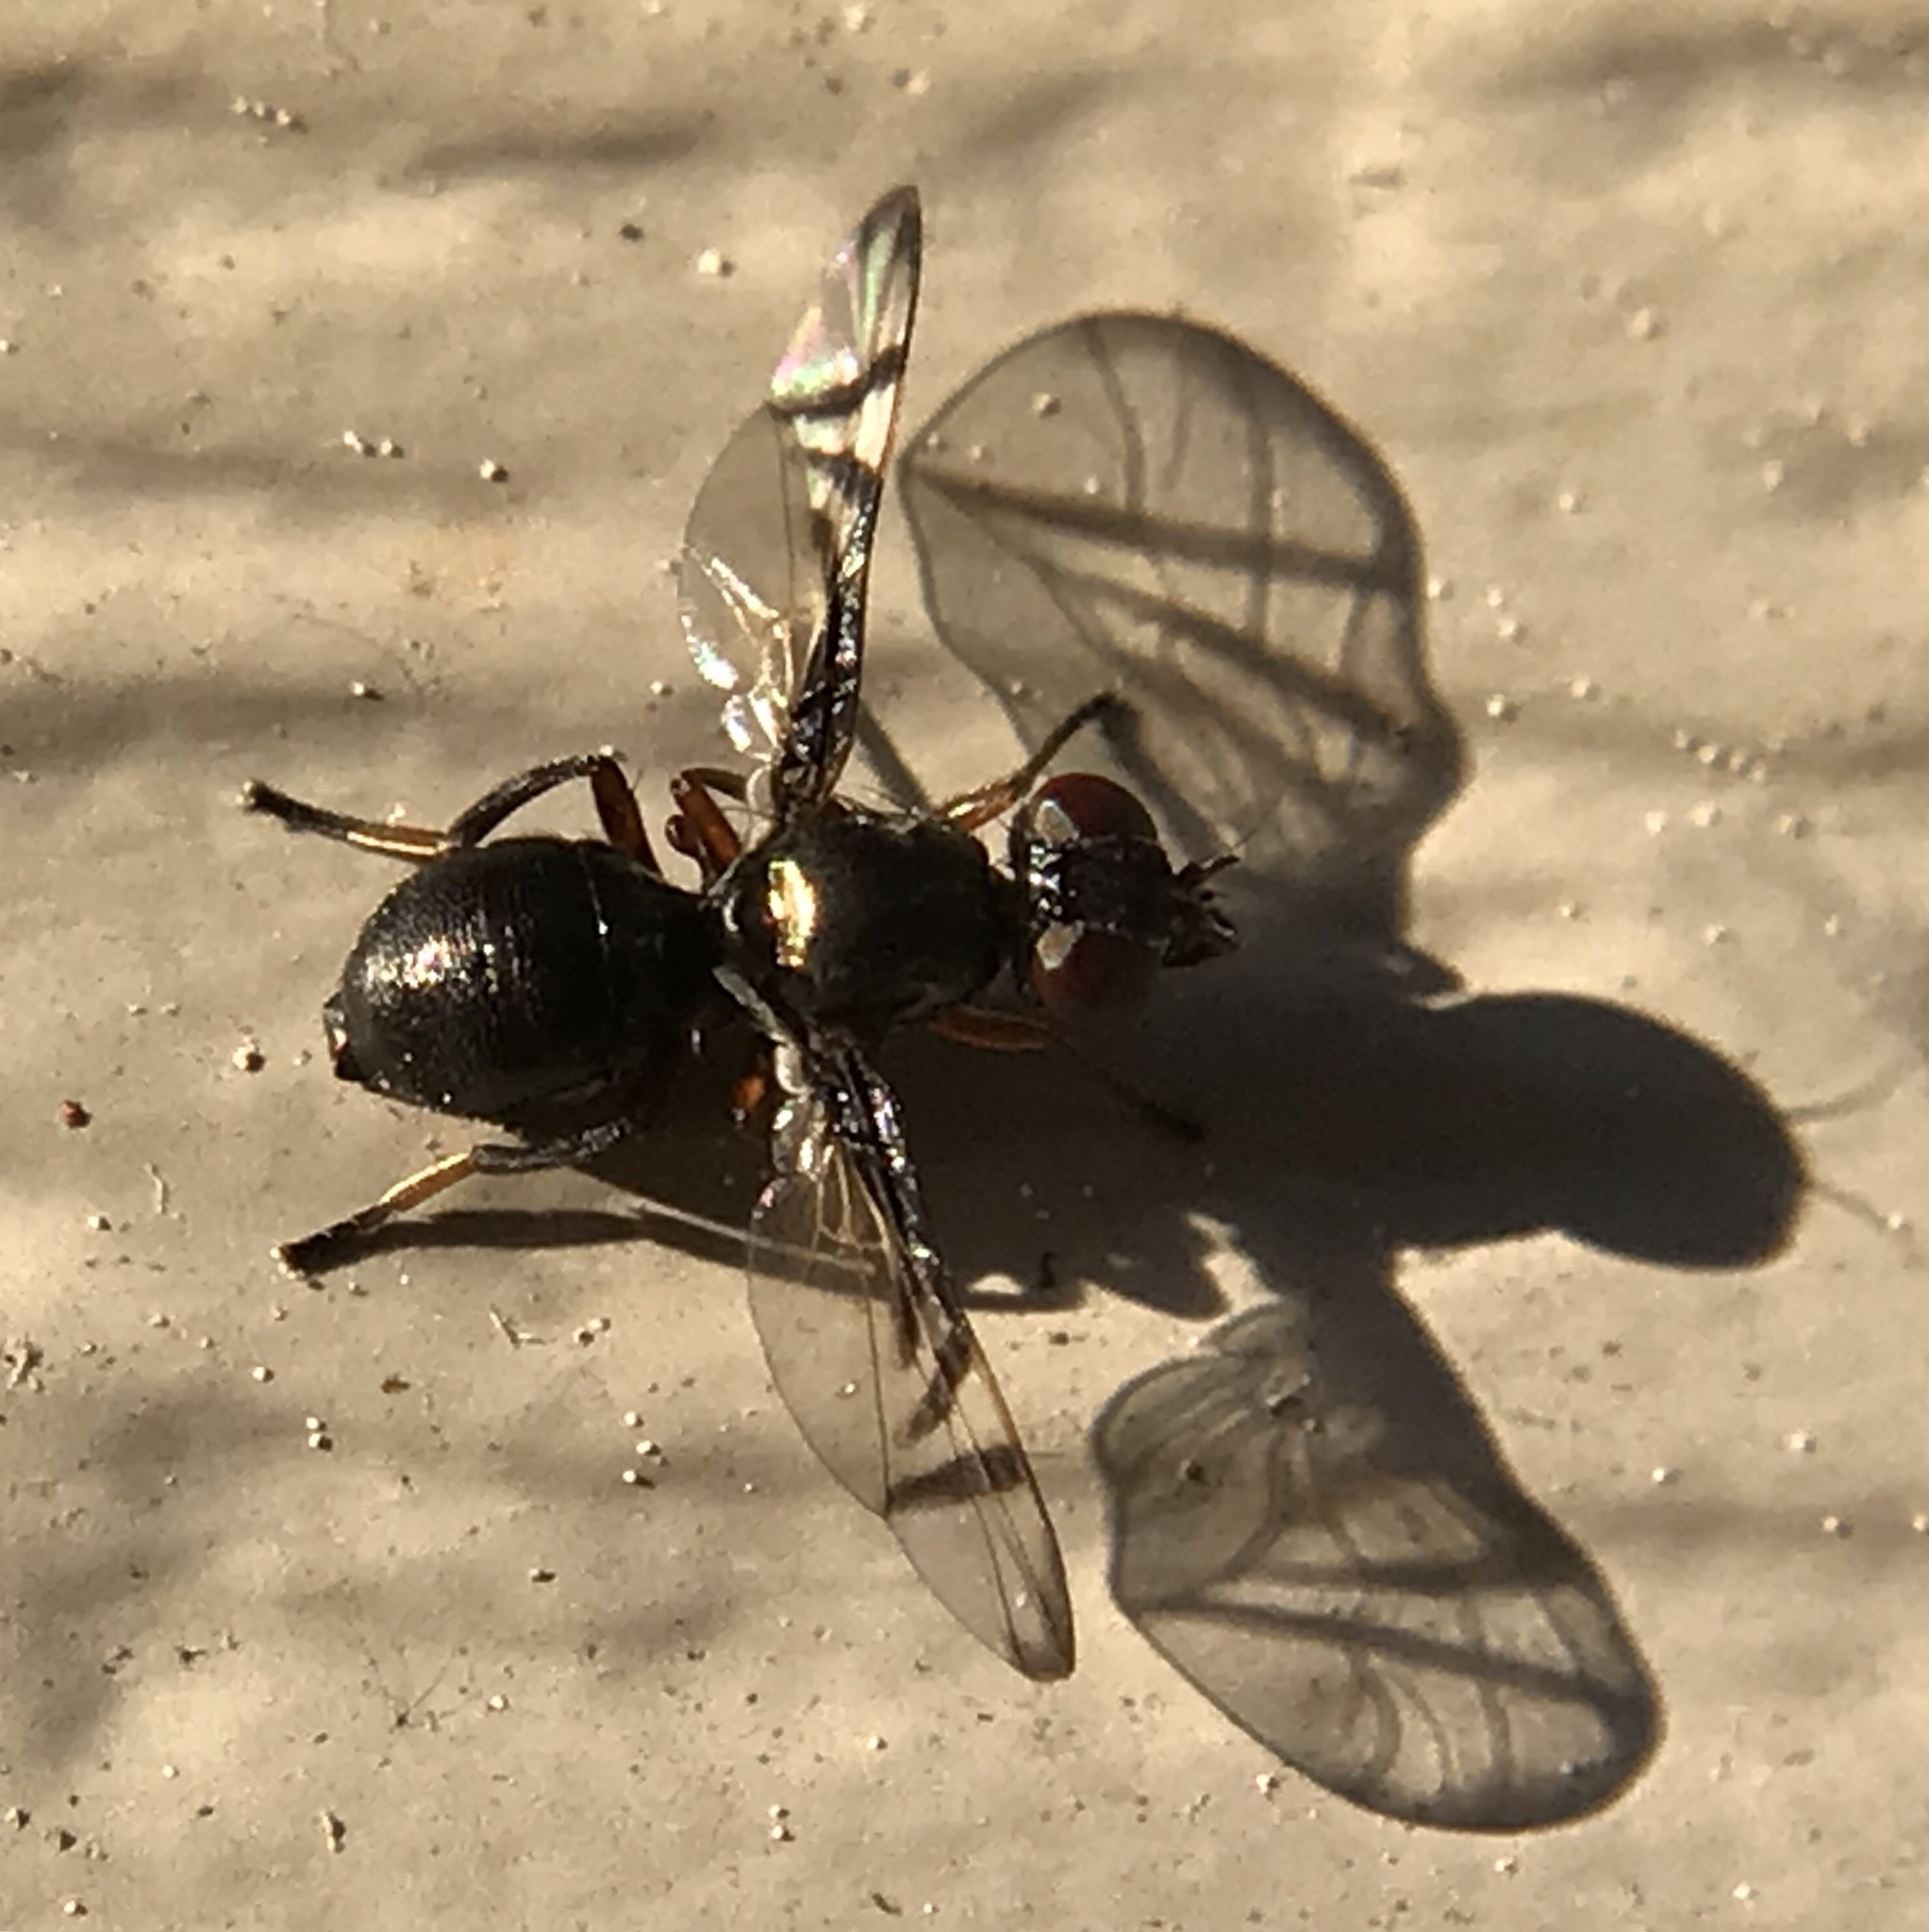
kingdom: Animalia
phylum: Arthropoda
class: Insecta
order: Diptera
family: Platystomatidae
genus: Rivellia
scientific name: Rivellia
